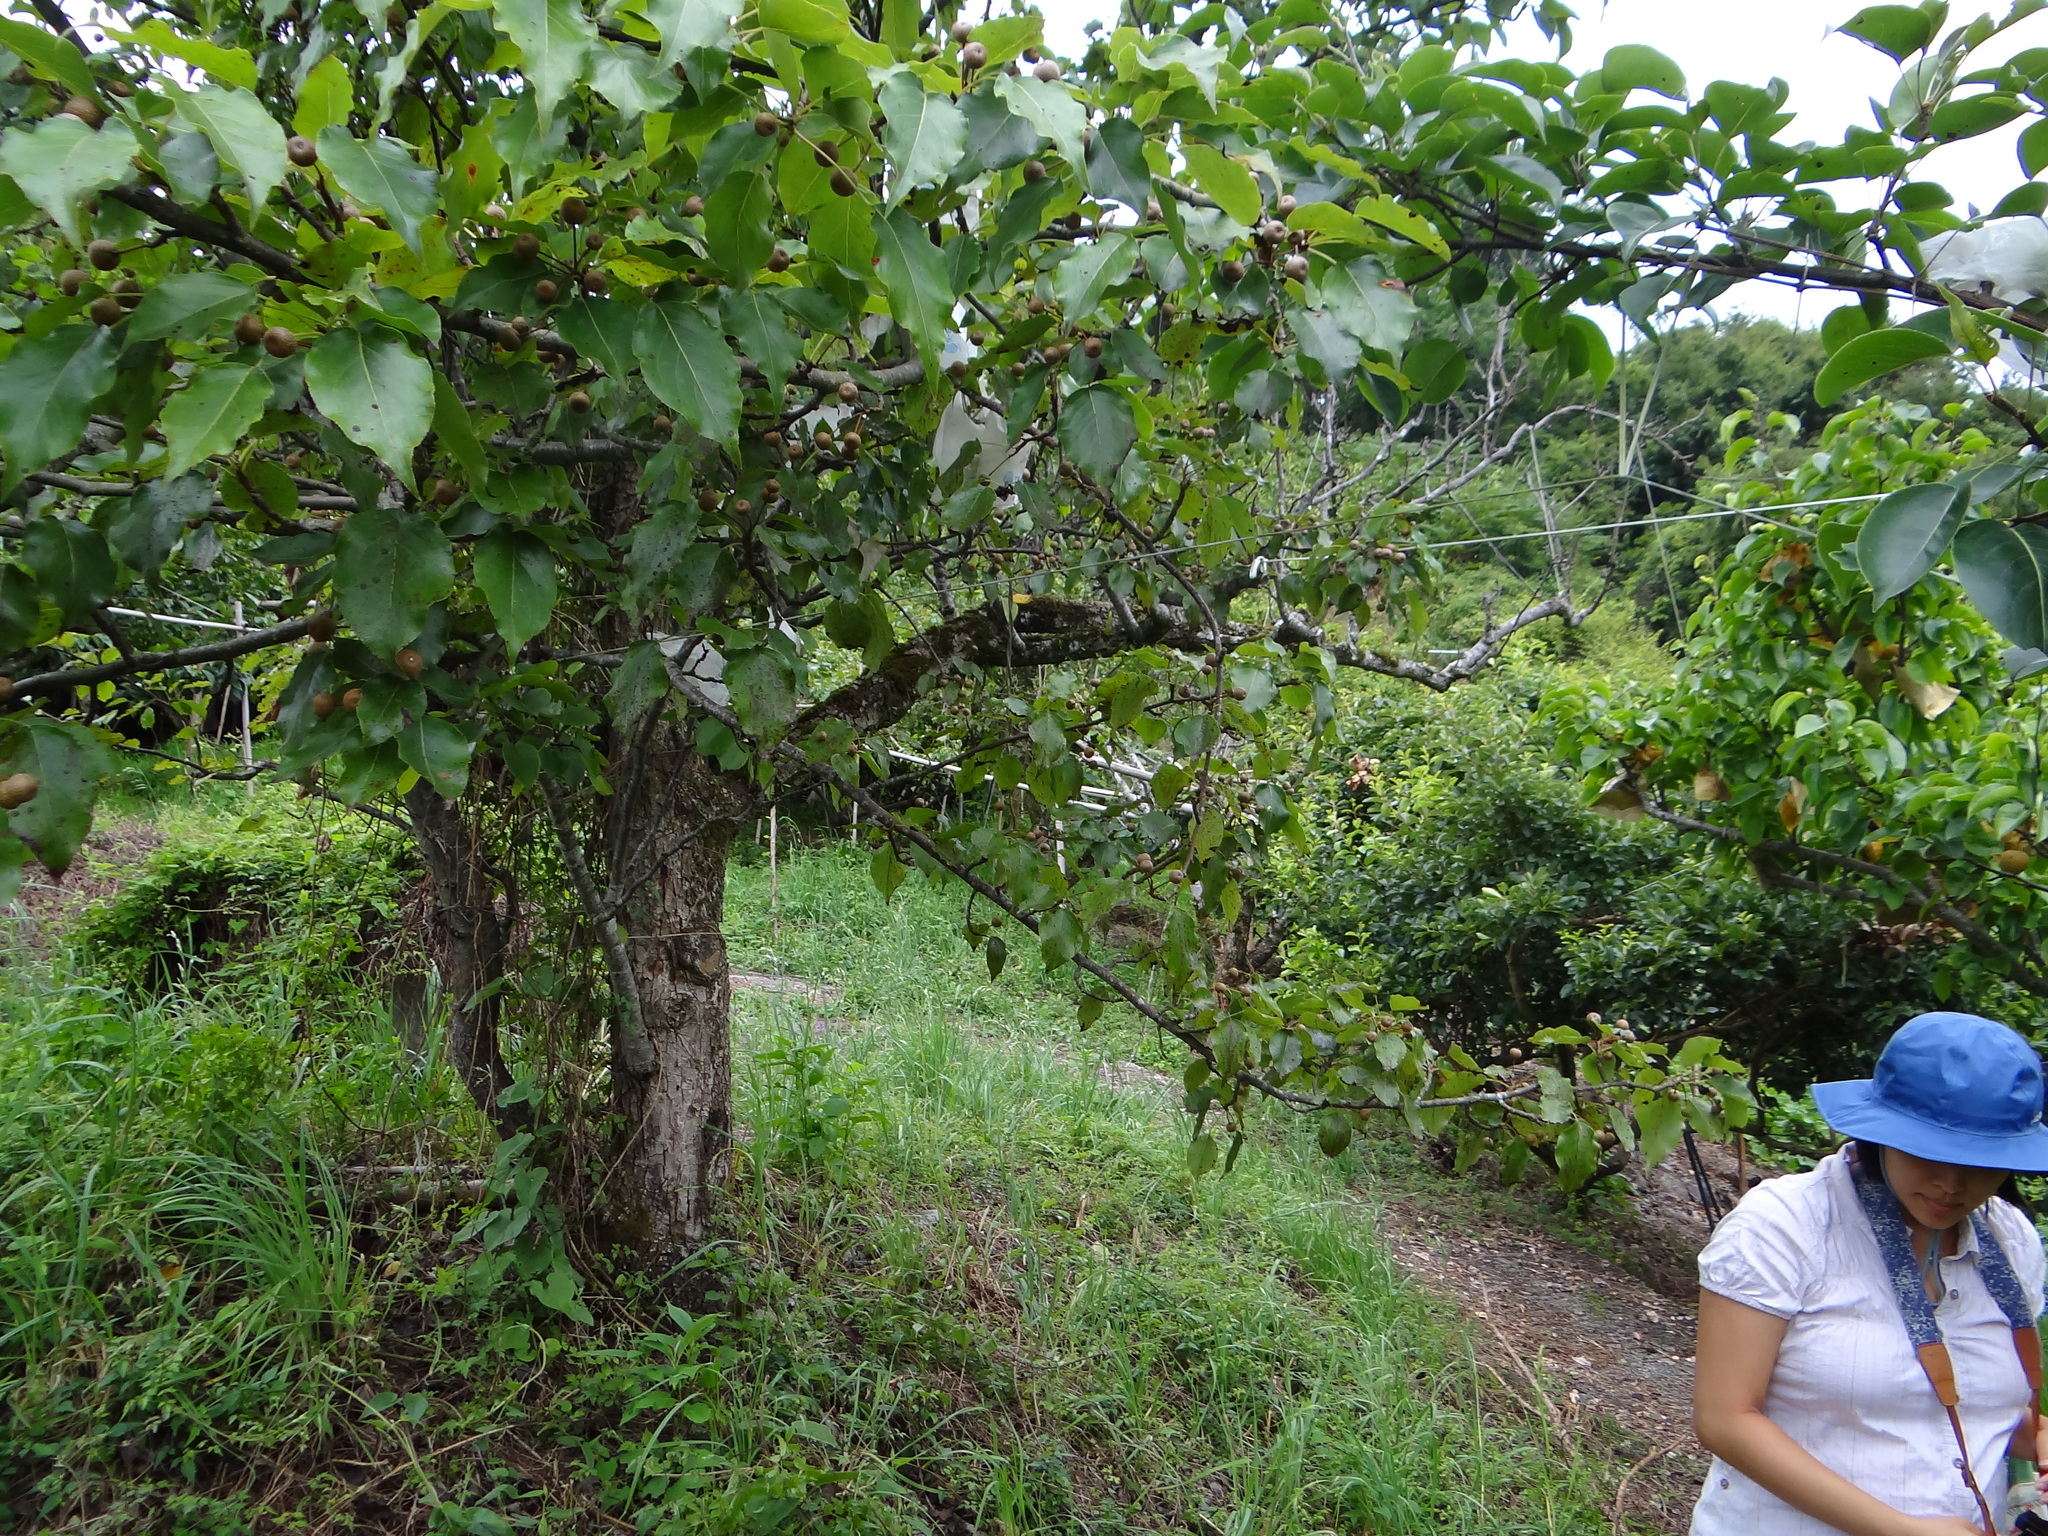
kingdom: Plantae
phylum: Tracheophyta
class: Magnoliopsida
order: Rosales
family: Rosaceae
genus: Pyrus
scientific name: Pyrus calleryana
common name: Callery pear
